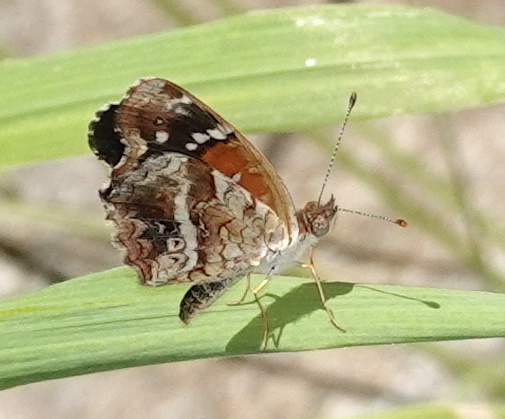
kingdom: Animalia
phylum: Arthropoda
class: Insecta
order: Lepidoptera
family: Nymphalidae
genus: Anthanassa
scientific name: Anthanassa texana
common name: Texan crescent
